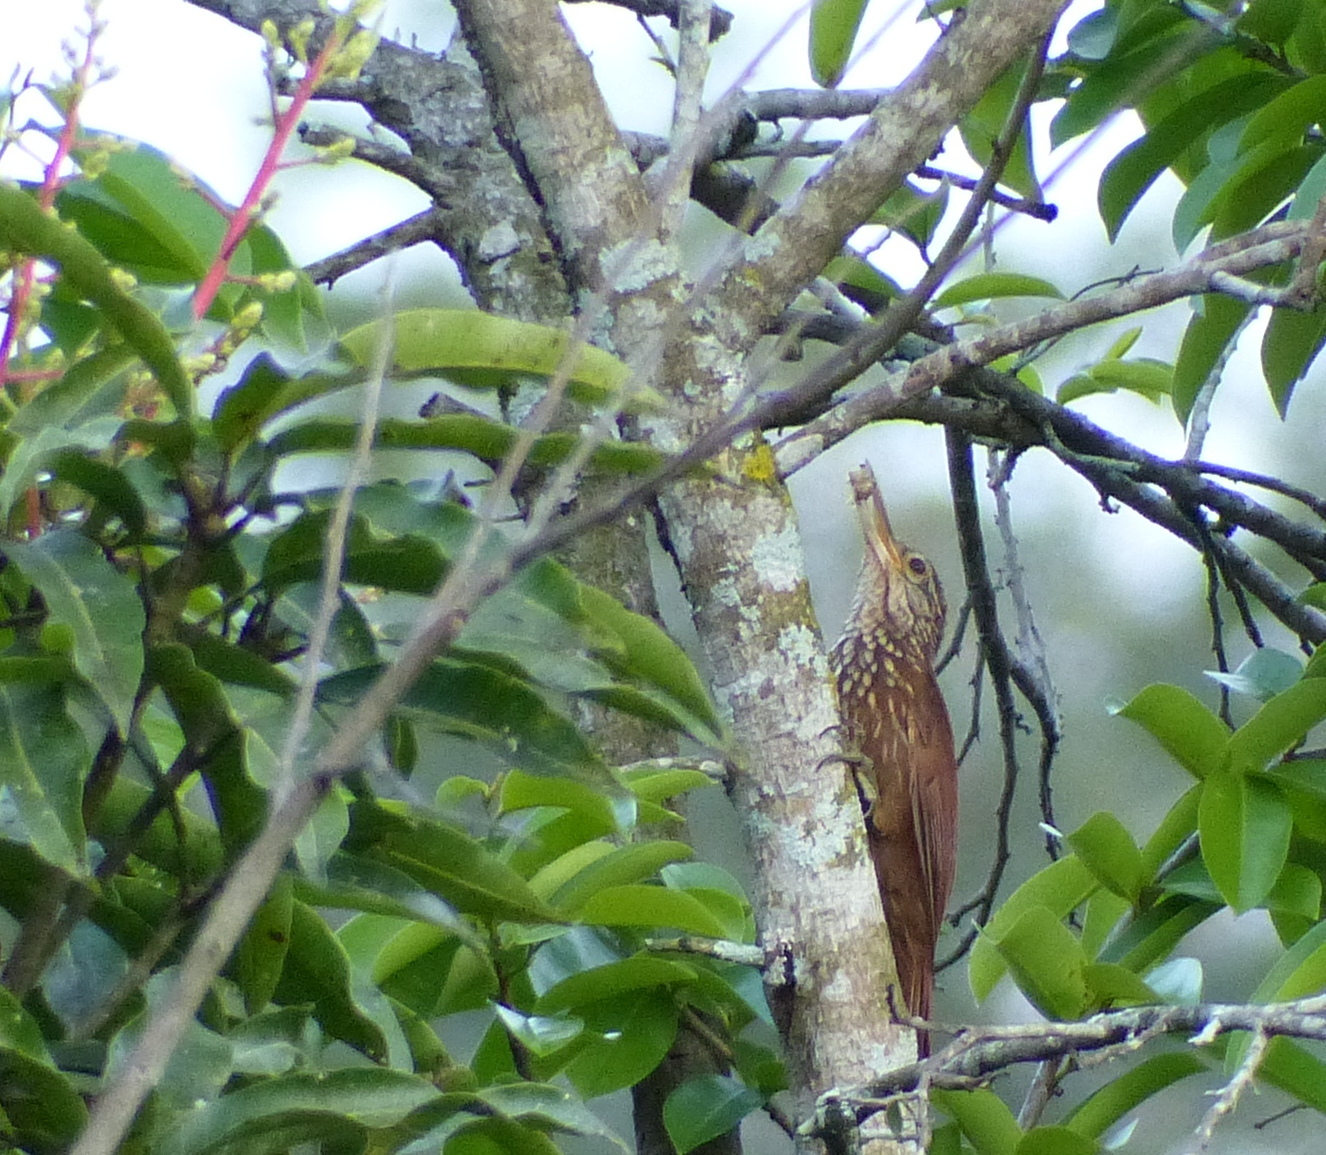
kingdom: Animalia
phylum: Chordata
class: Aves
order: Passeriformes
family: Furnariidae
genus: Xiphorhynchus
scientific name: Xiphorhynchus picus
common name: Straight-billed woodcreeper
